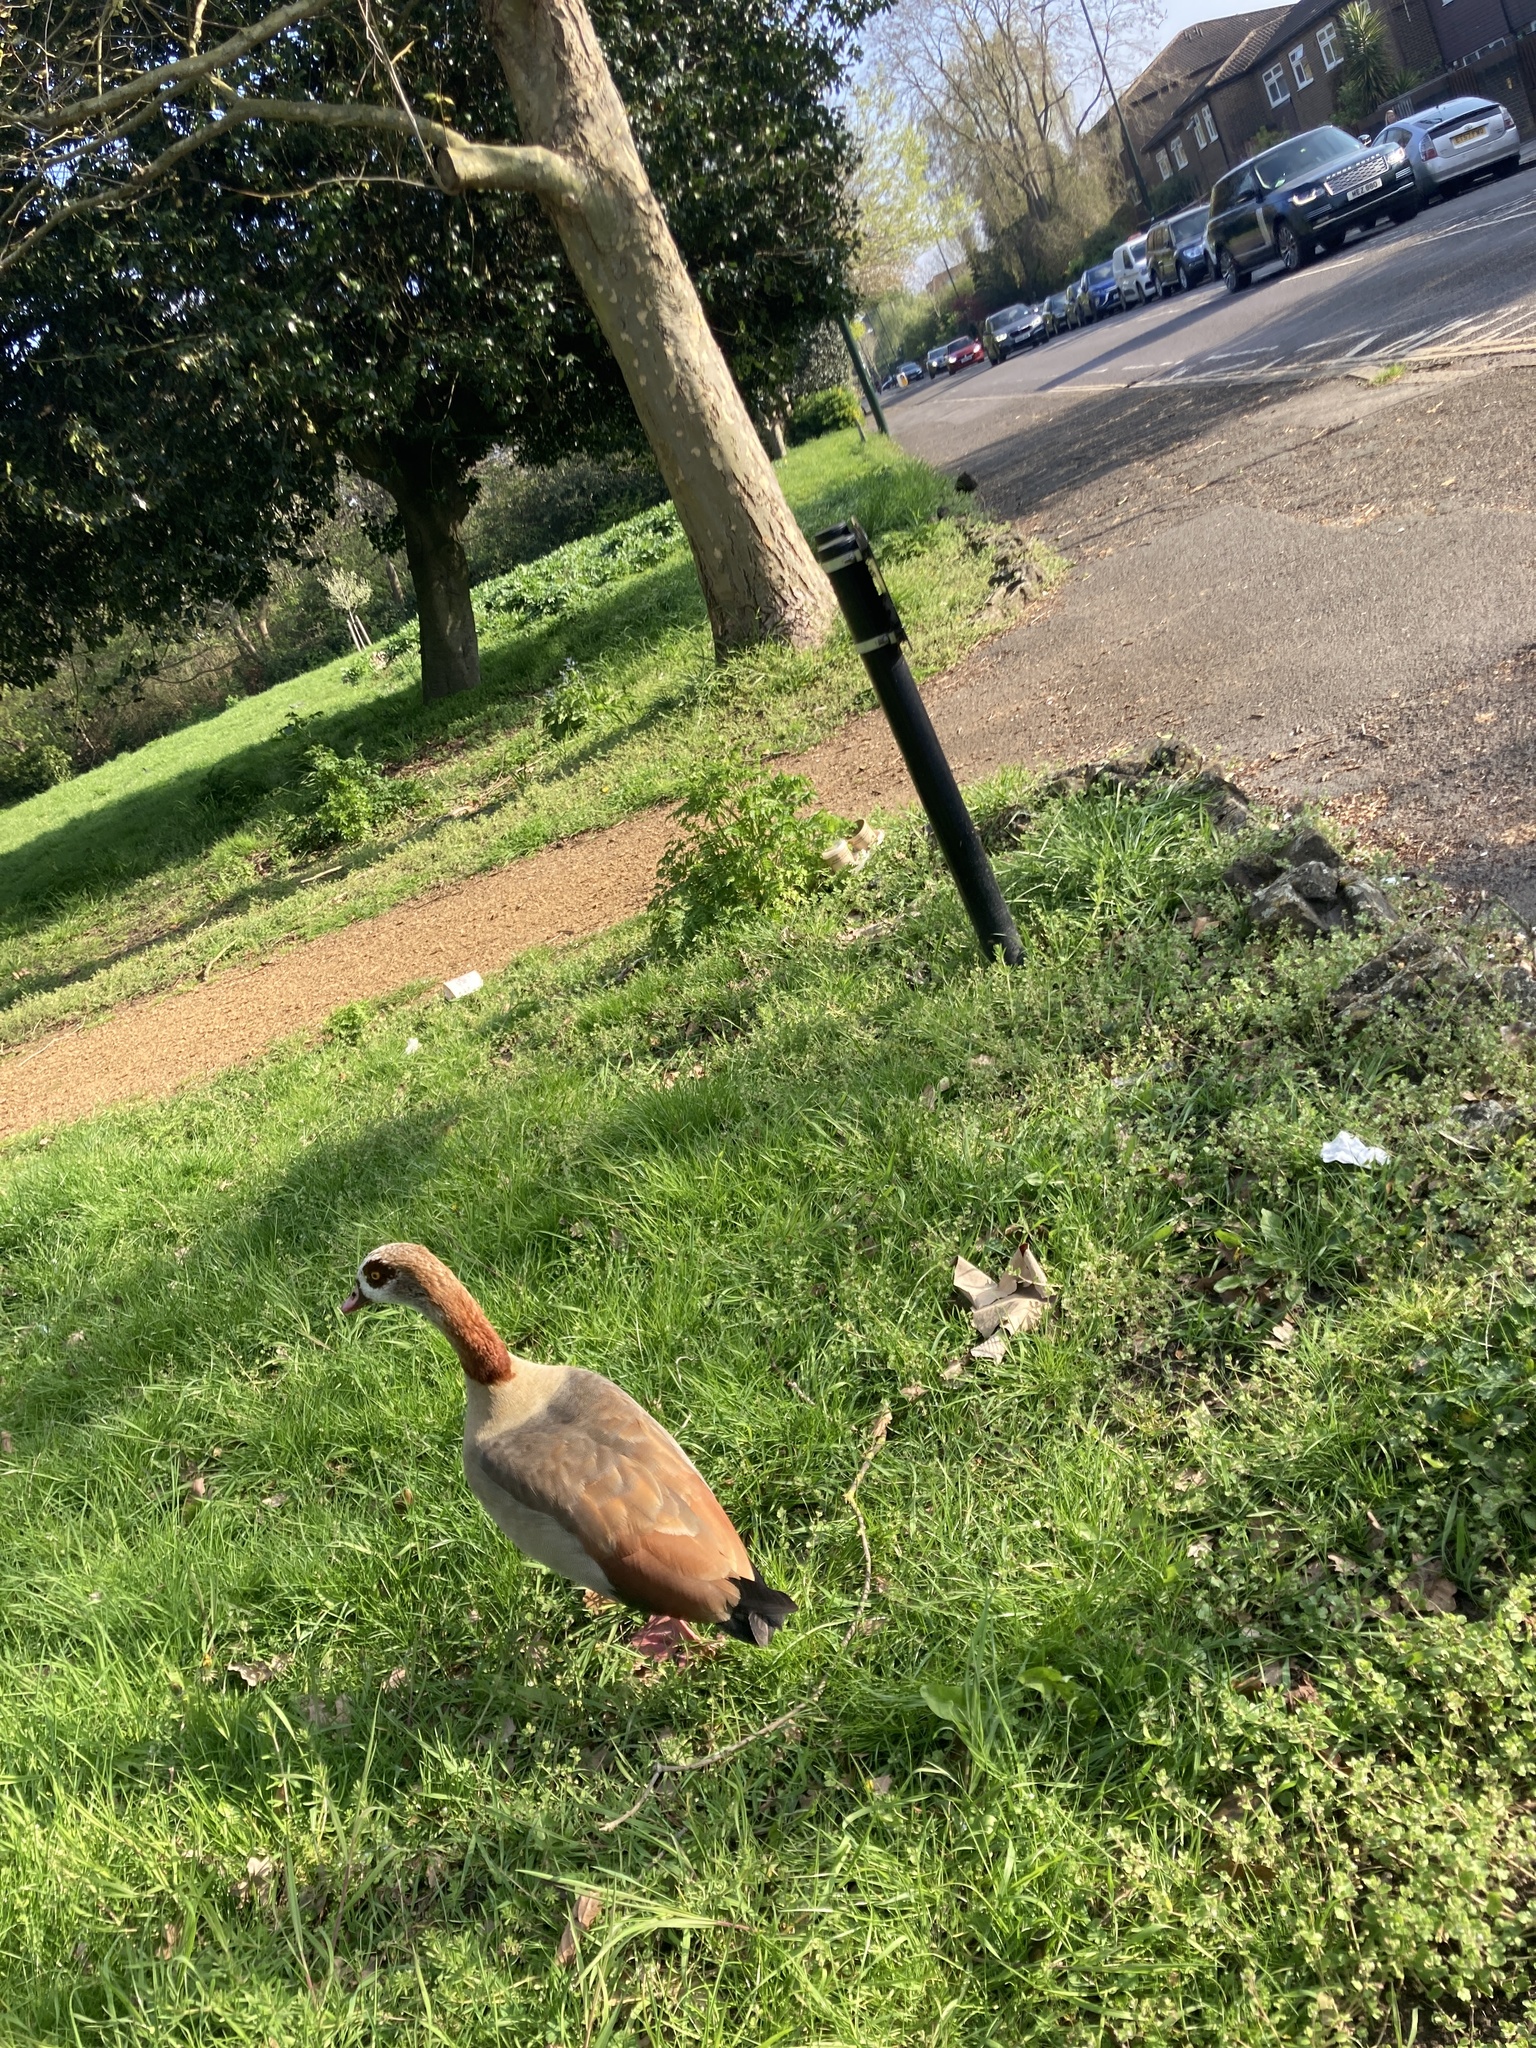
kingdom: Animalia
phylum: Chordata
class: Aves
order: Anseriformes
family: Anatidae
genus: Alopochen
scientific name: Alopochen aegyptiaca
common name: Egyptian goose
